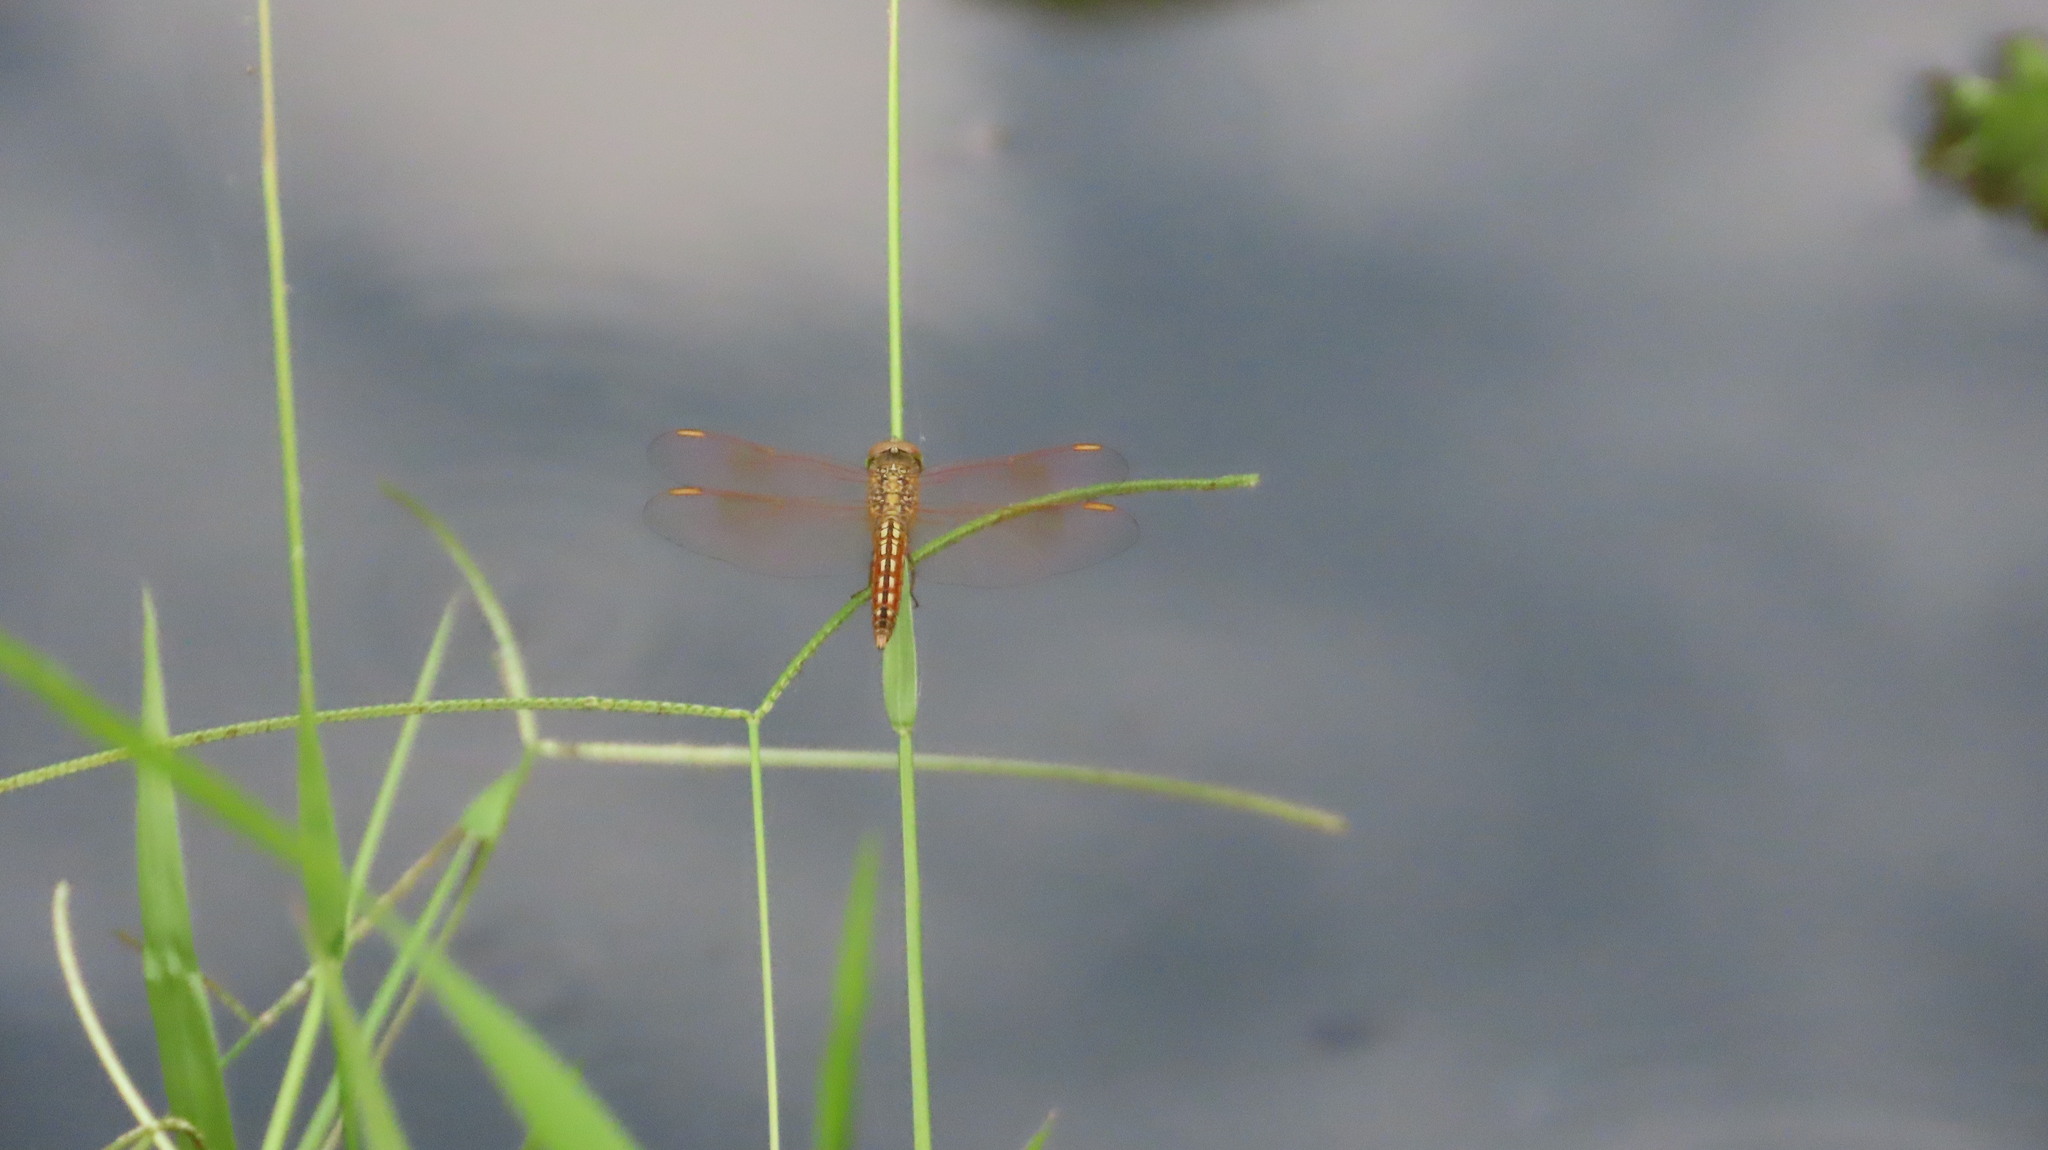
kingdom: Animalia
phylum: Arthropoda
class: Insecta
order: Odonata
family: Libellulidae
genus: Brachythemis
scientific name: Brachythemis contaminata
